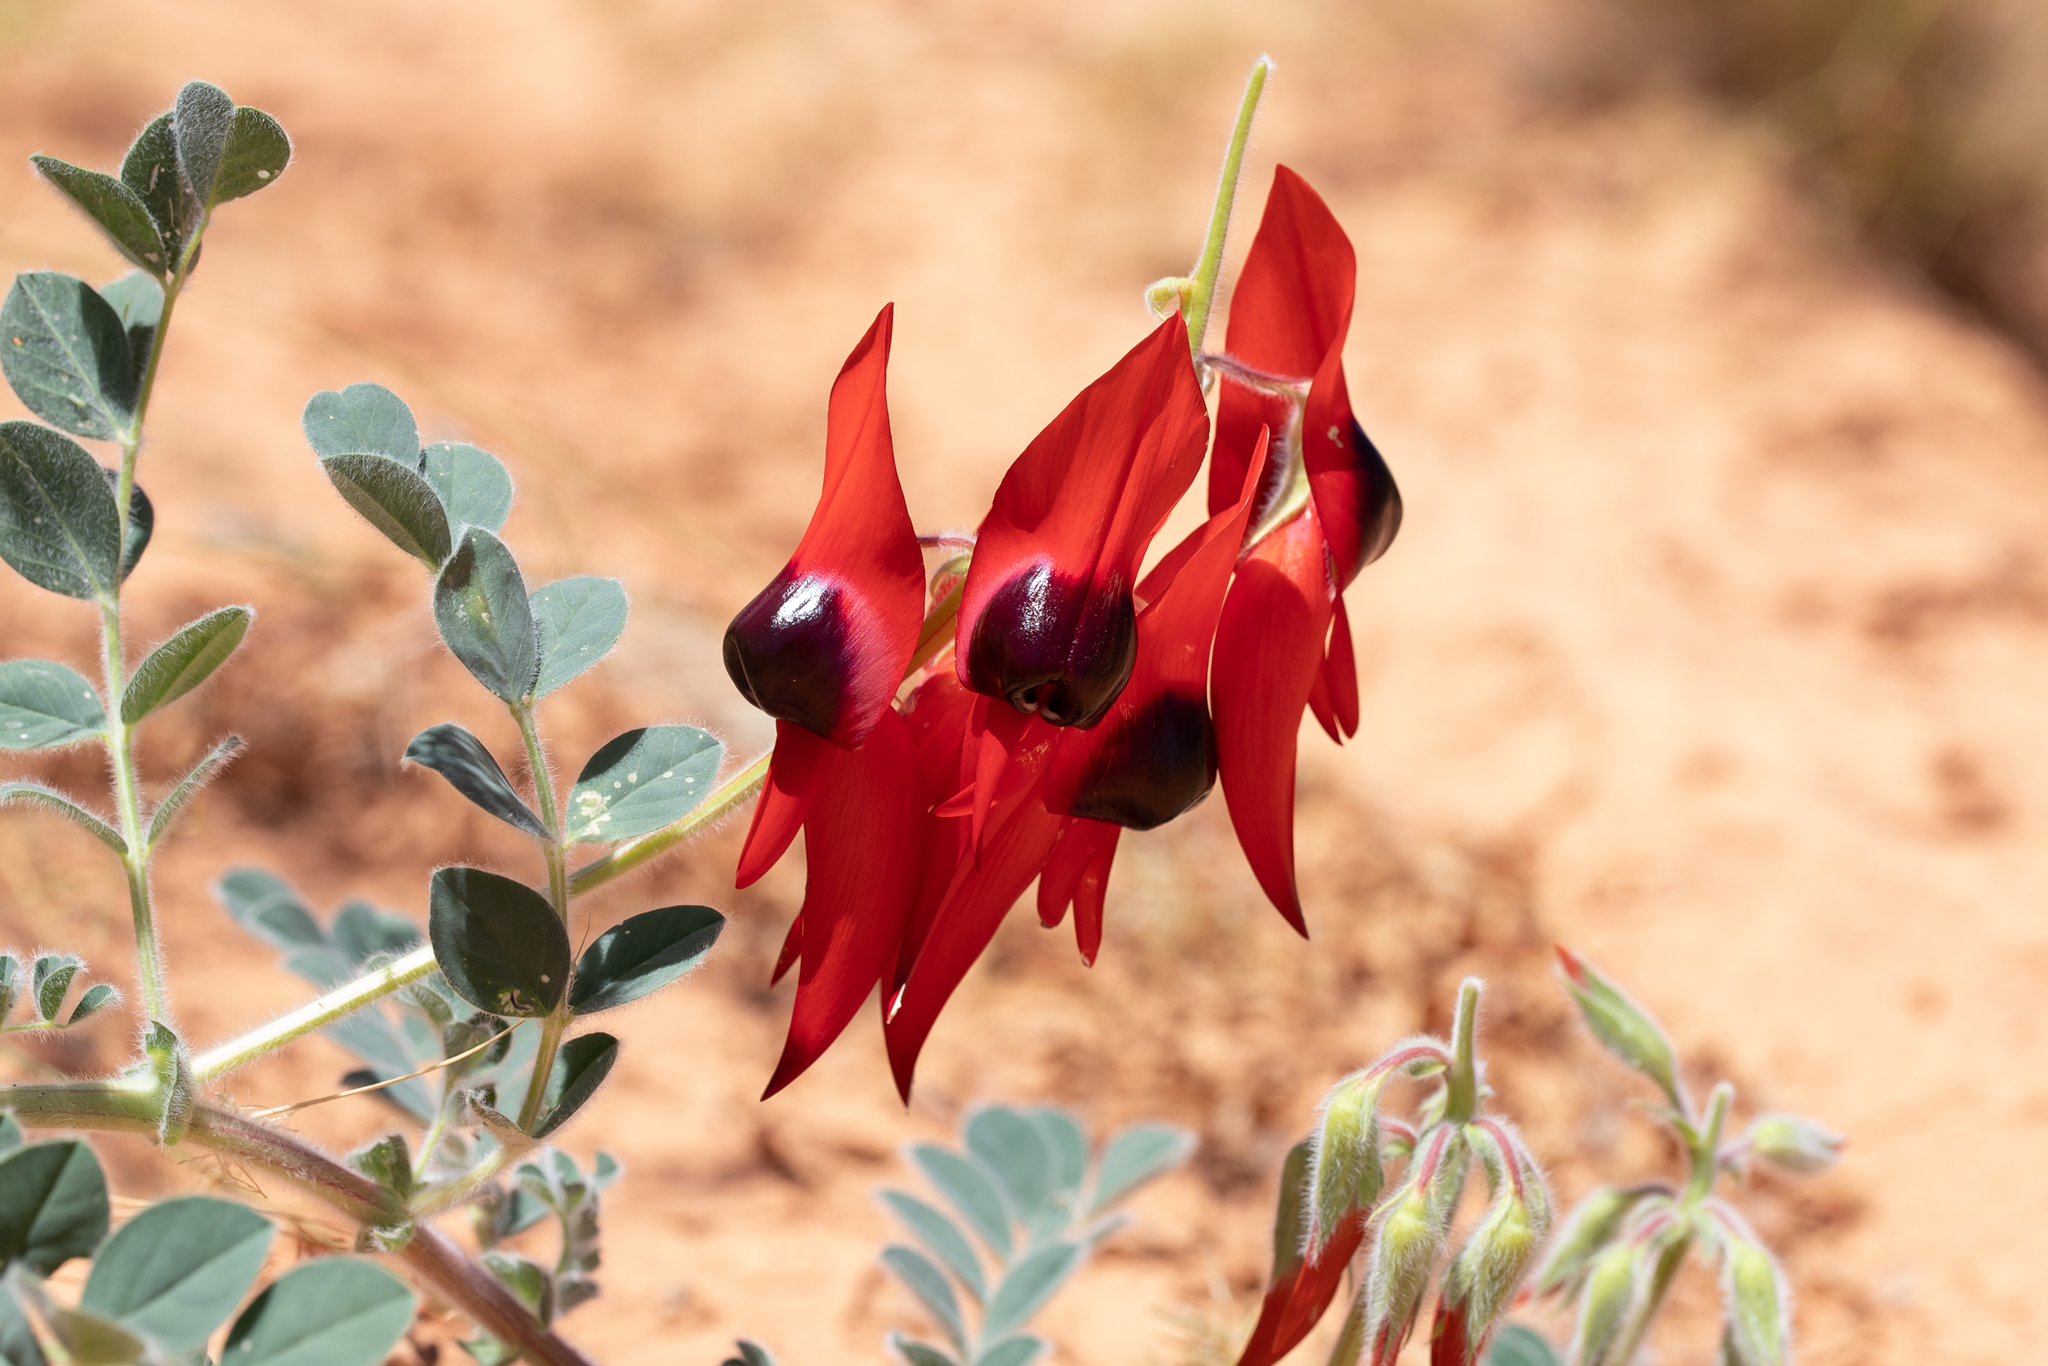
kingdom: Plantae
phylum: Tracheophyta
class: Magnoliopsida
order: Fabales
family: Fabaceae
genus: Swainsona
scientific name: Swainsona formosa
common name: Sturt's desert-pea
